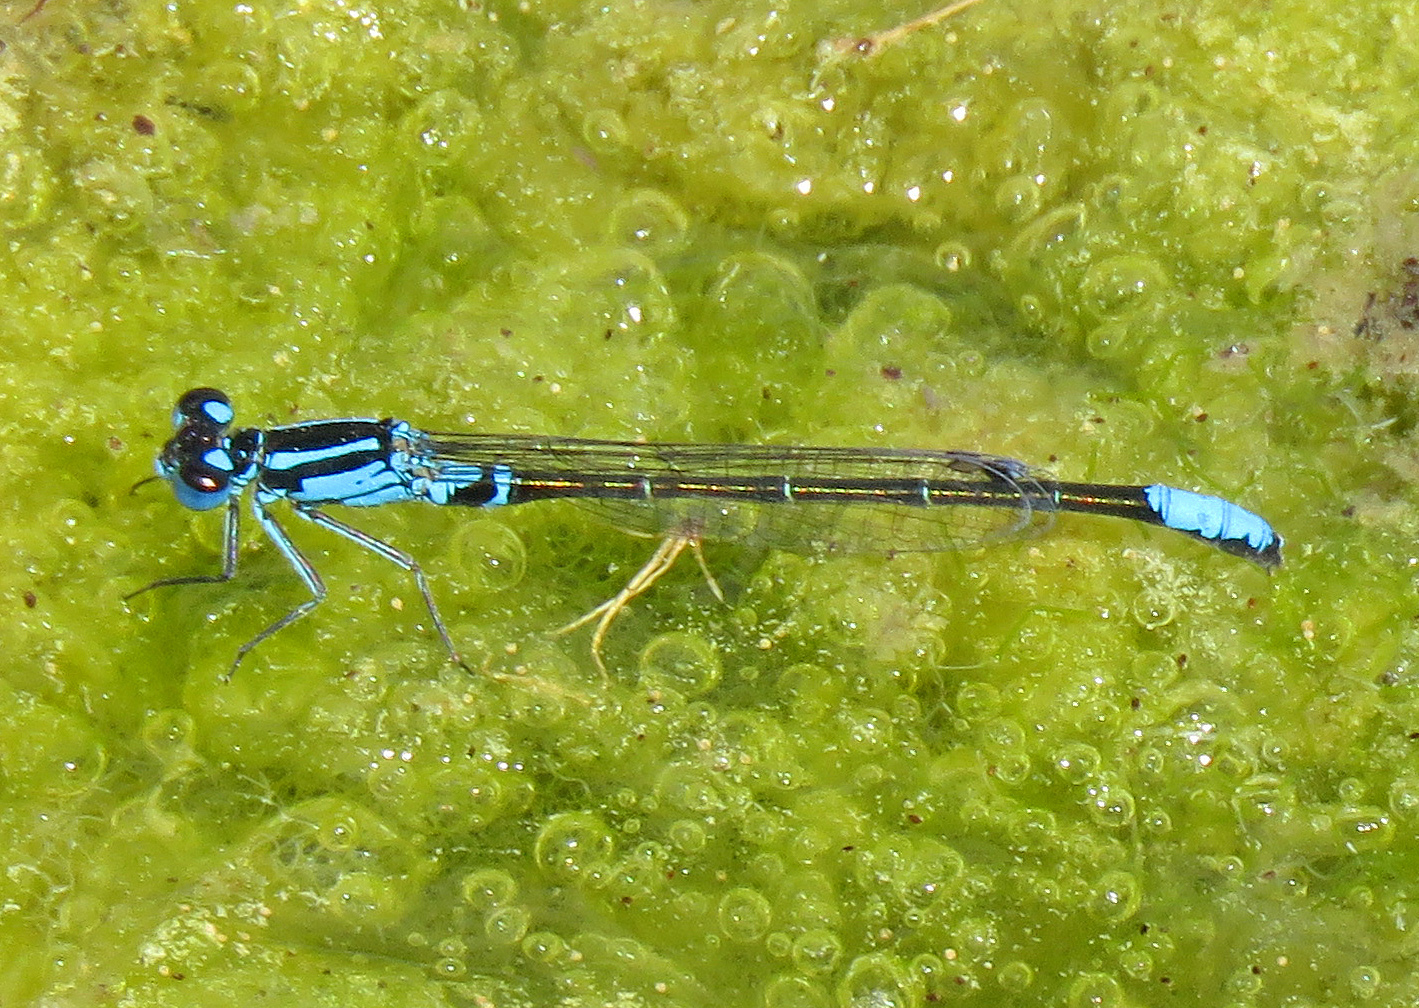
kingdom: Animalia
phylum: Arthropoda
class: Insecta
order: Odonata
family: Coenagrionidae
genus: Ischnura
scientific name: Ischnura kellicotti
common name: Lilypad forktail
